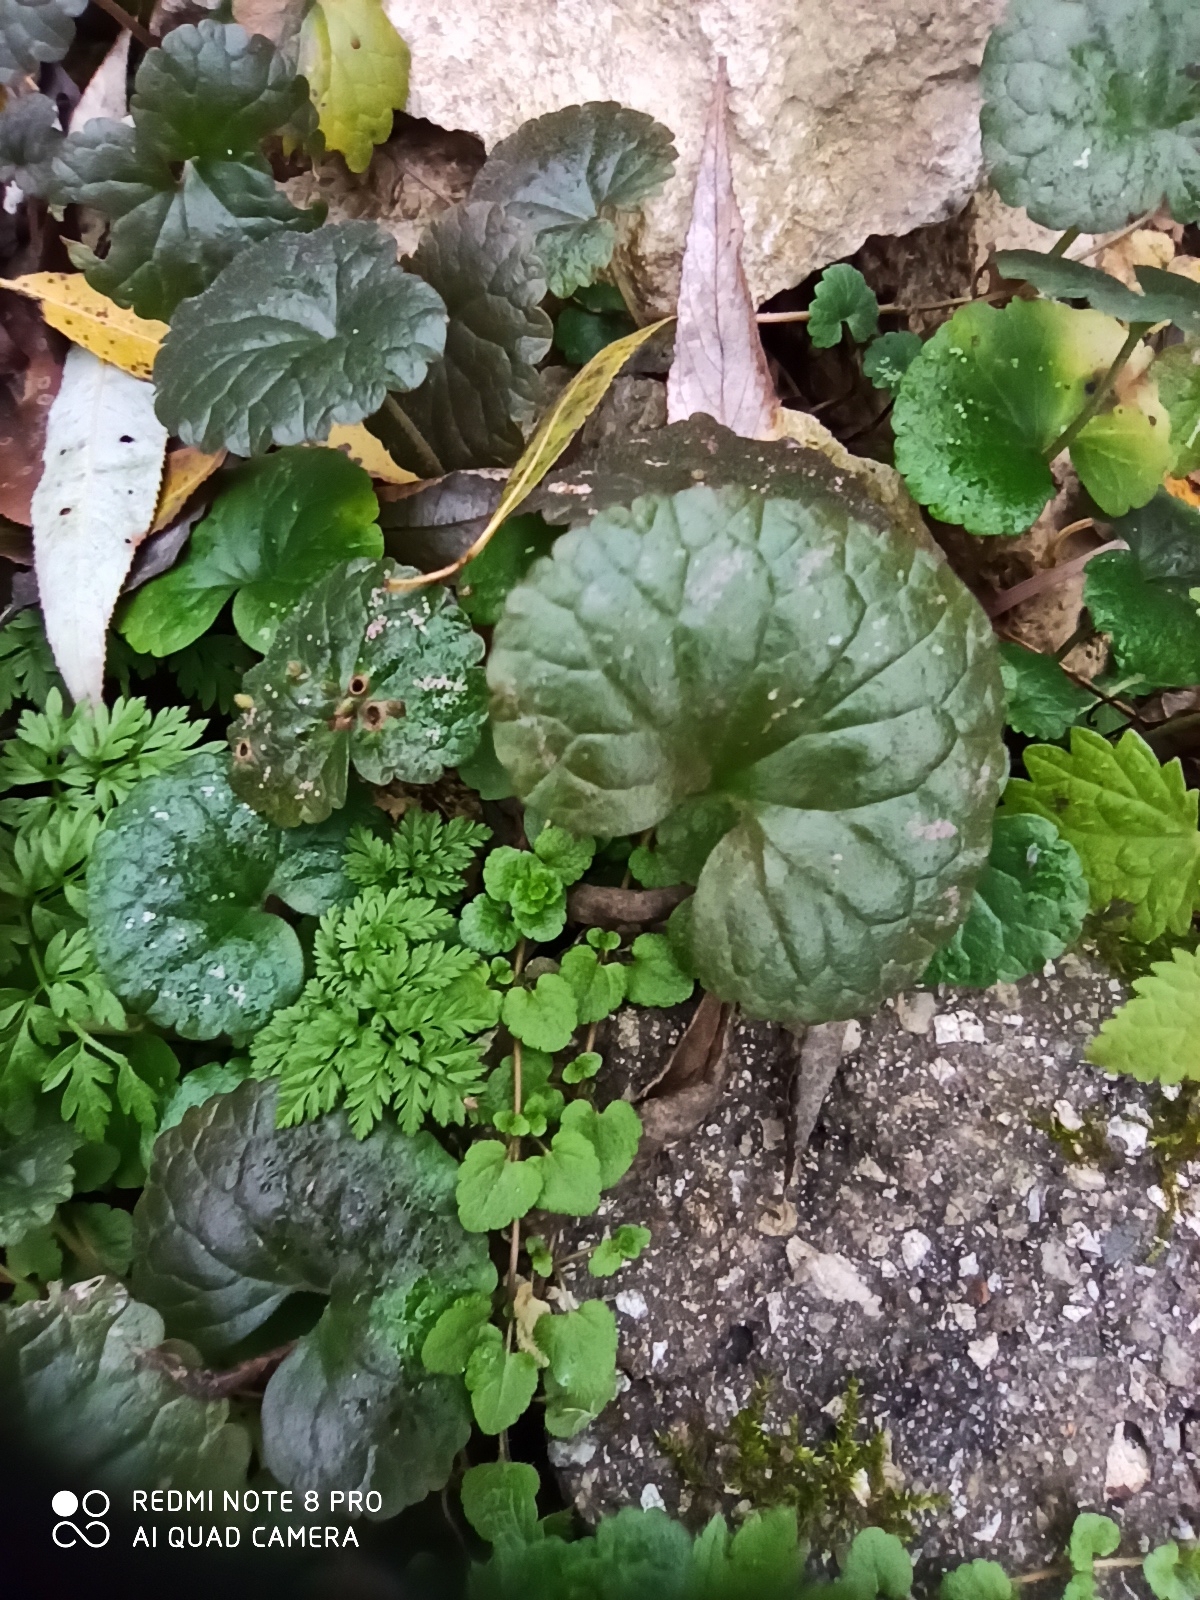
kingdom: Plantae
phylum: Tracheophyta
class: Magnoliopsida
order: Lamiales
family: Lamiaceae
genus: Glechoma
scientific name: Glechoma hederacea
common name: Ground ivy
